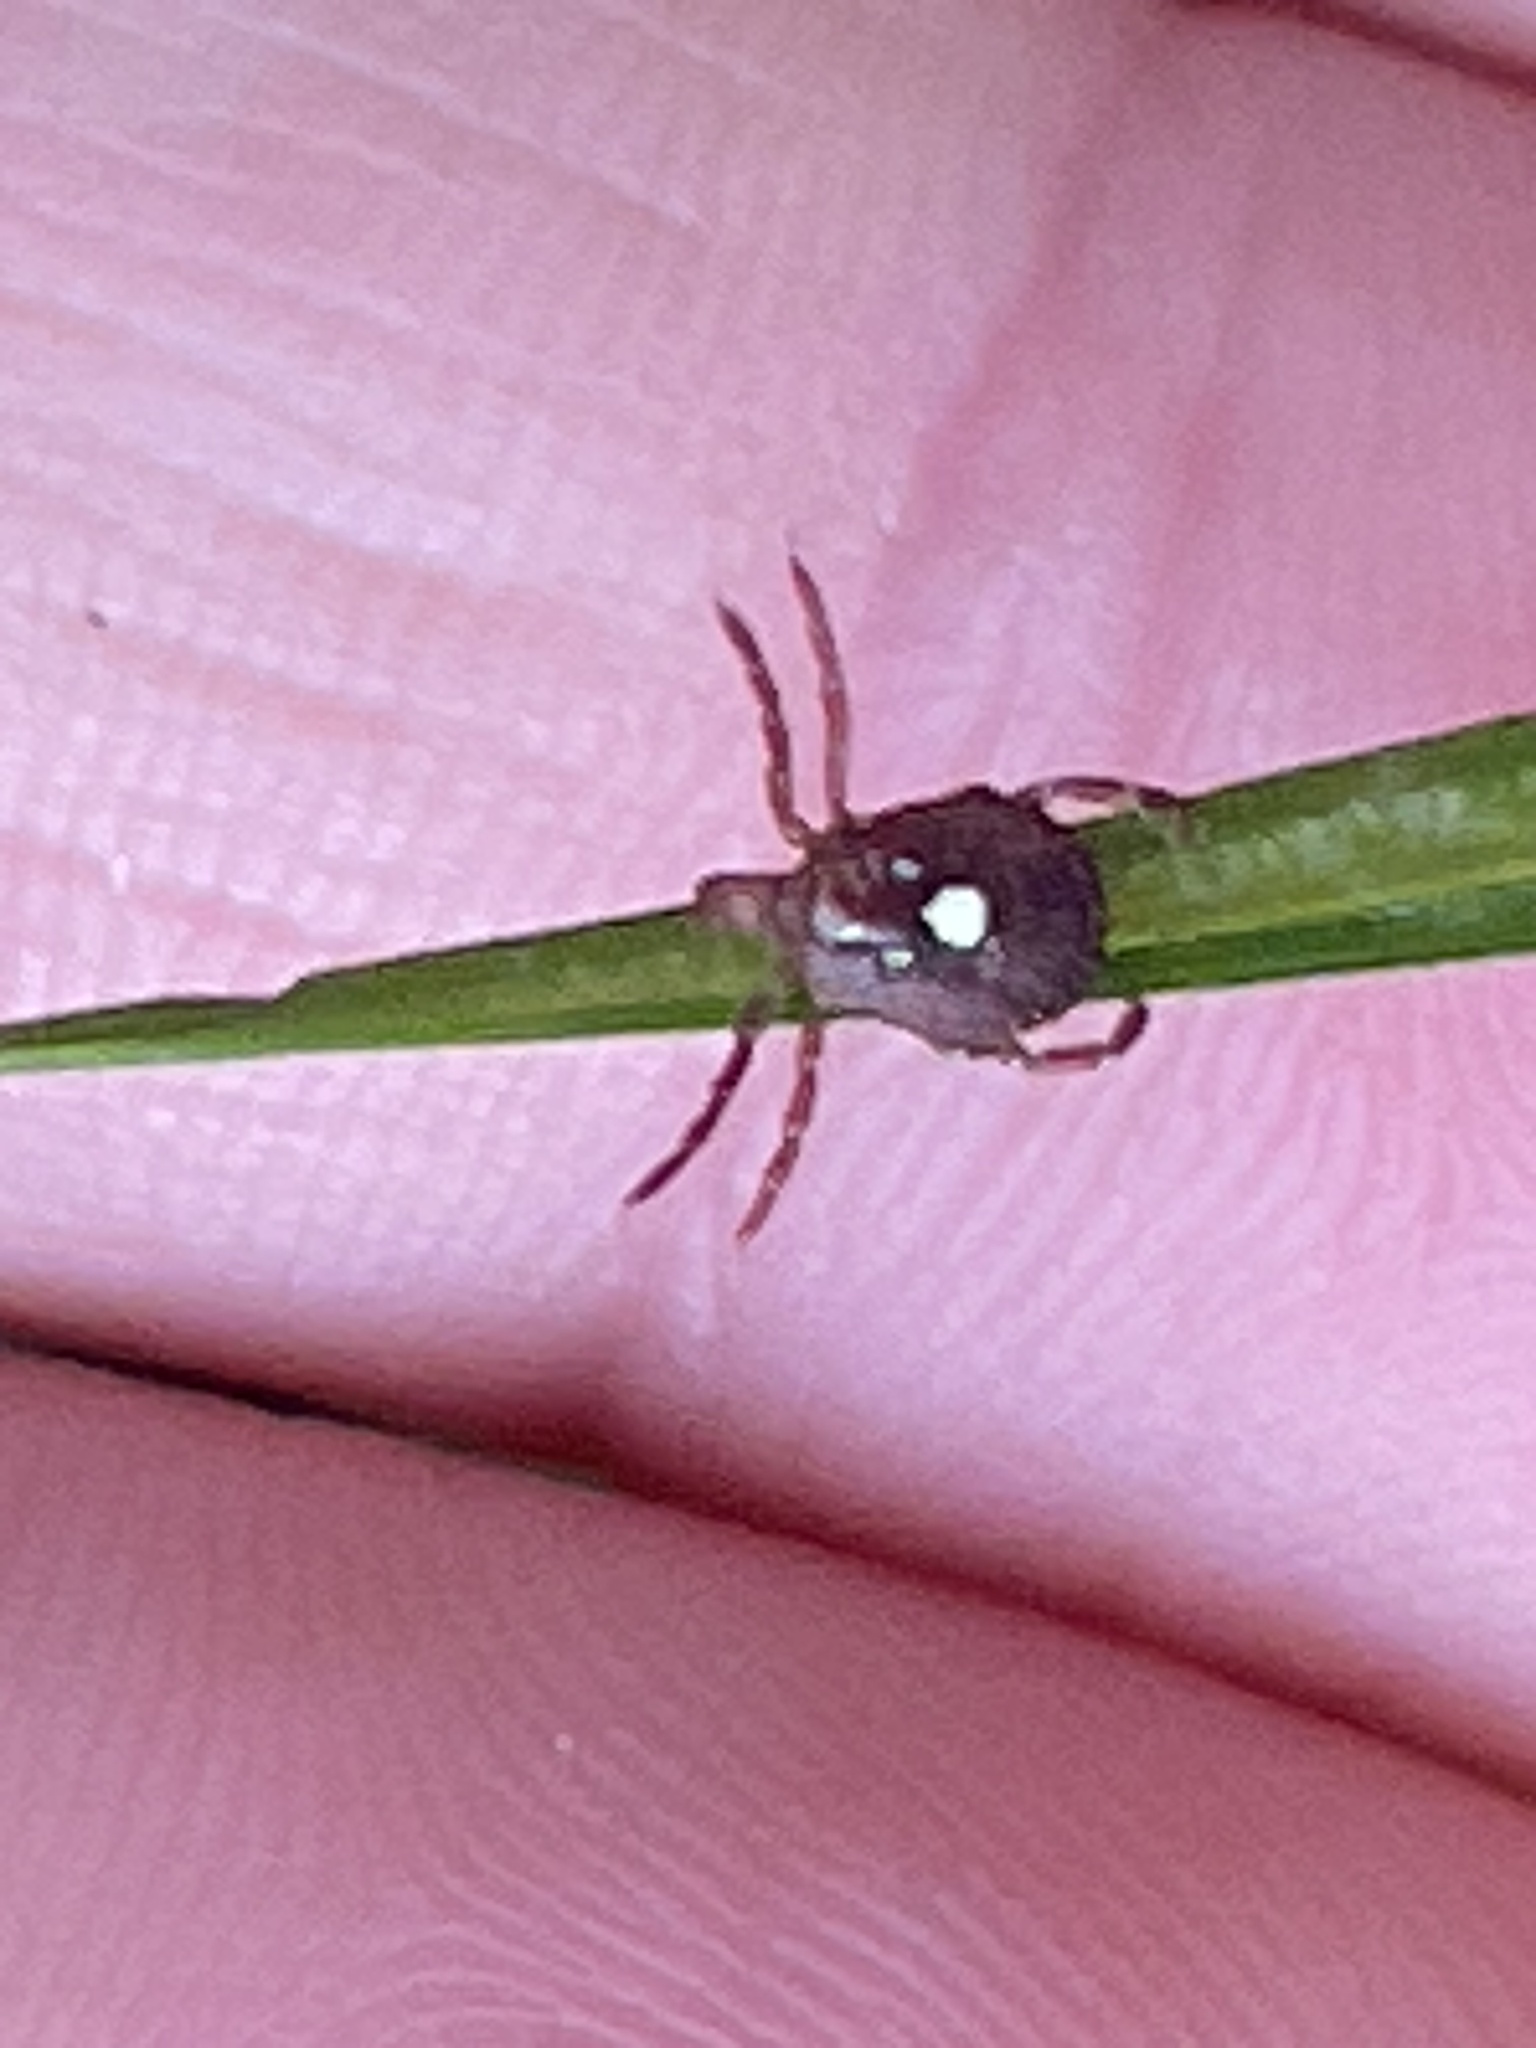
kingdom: Animalia
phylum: Arthropoda
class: Arachnida
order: Ixodida
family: Ixodidae
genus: Amblyomma
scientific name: Amblyomma americanum
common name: Lone star tick
